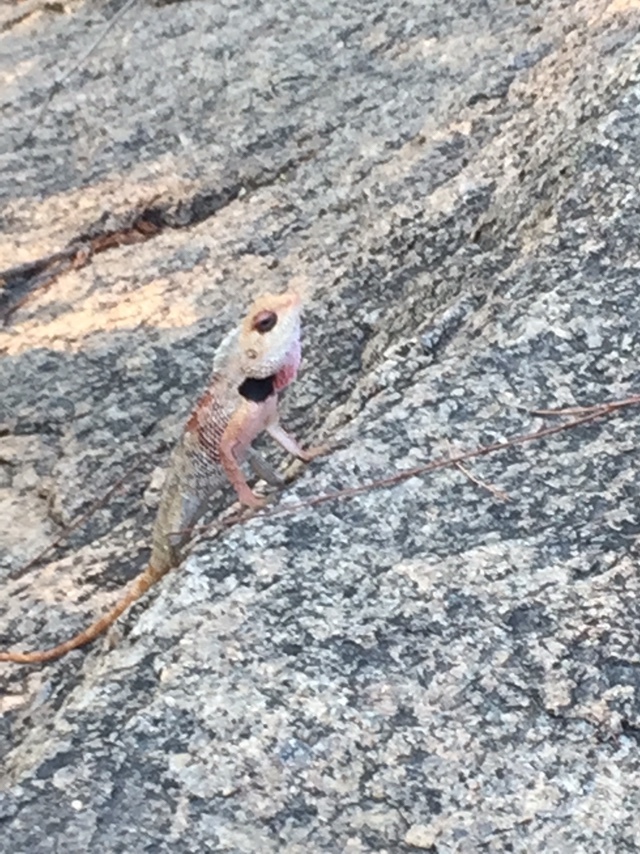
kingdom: Animalia
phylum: Chordata
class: Squamata
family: Agamidae
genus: Calotes
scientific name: Calotes versicolor
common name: Oriental garden lizard
